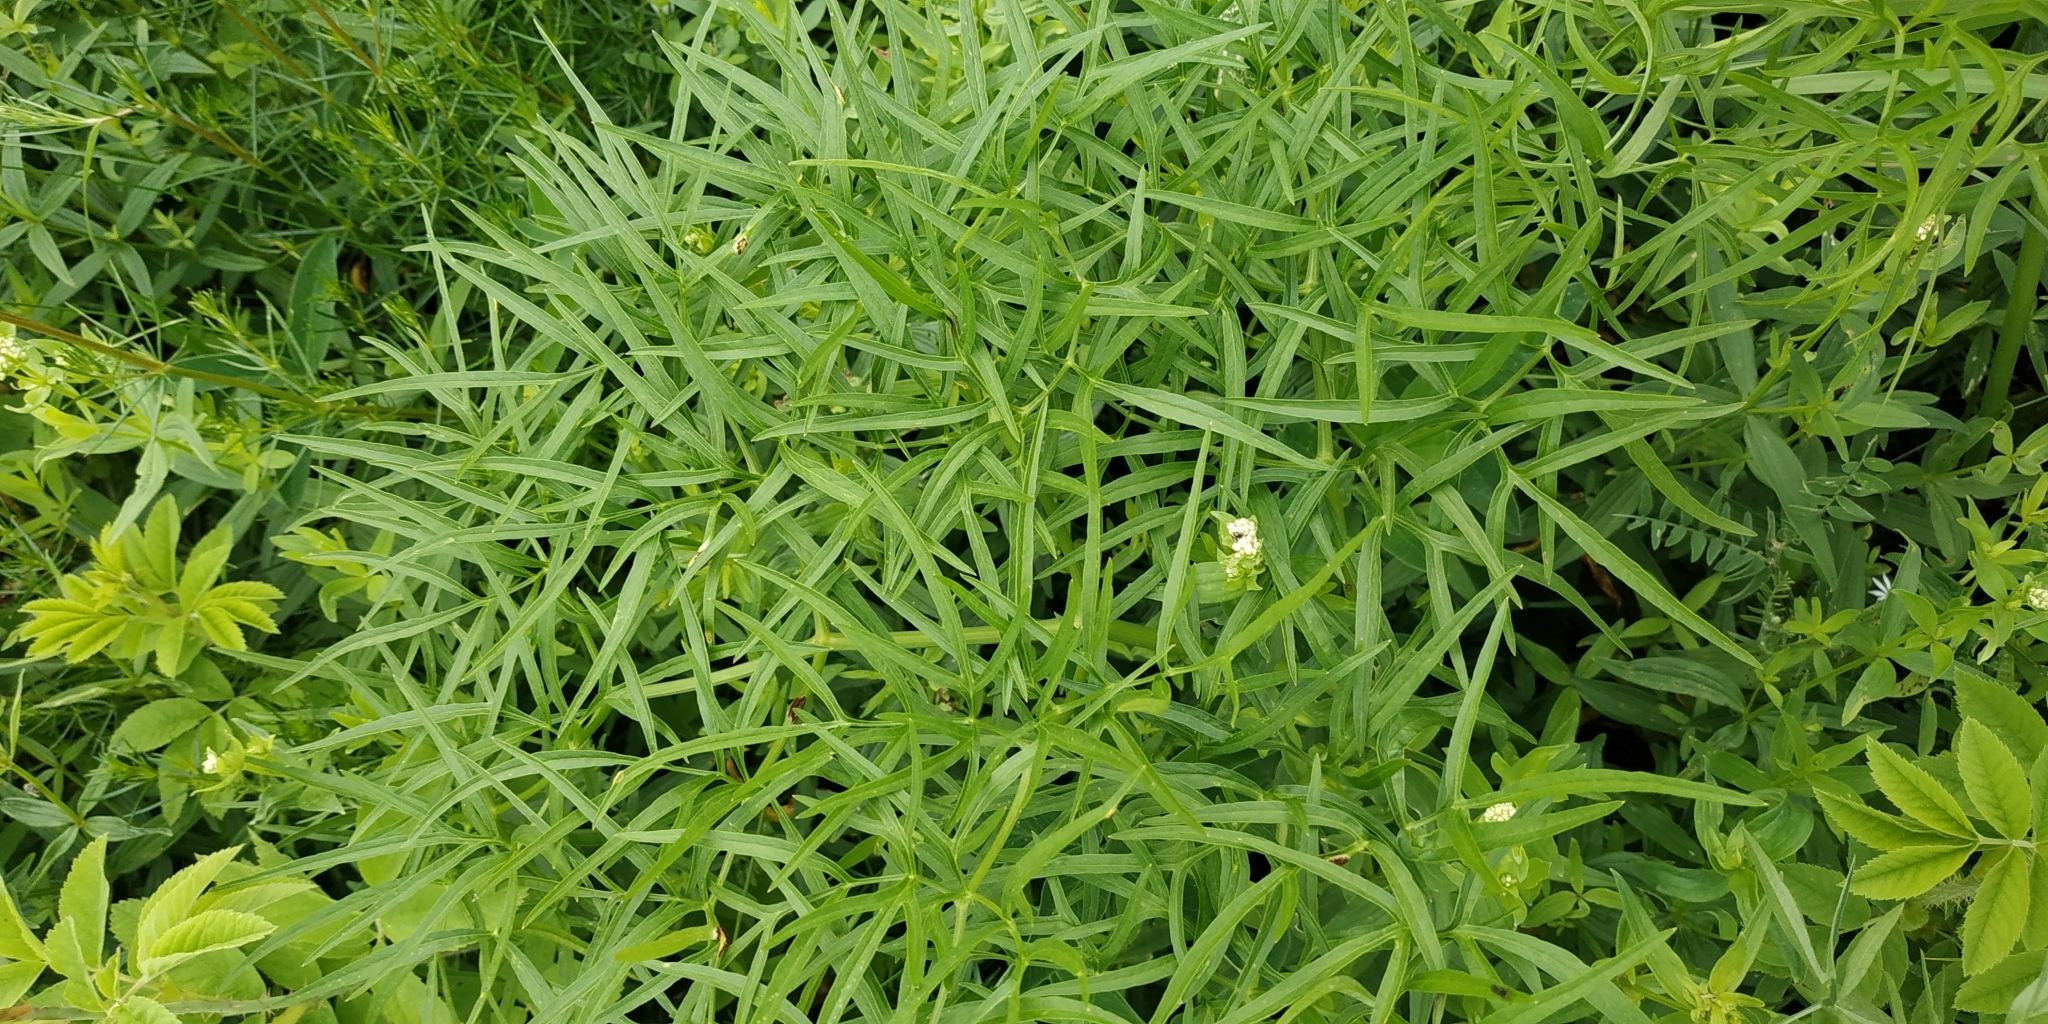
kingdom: Plantae
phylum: Tracheophyta
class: Magnoliopsida
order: Apiales
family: Apiaceae
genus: Cenolophium
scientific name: Cenolophium fischeri
